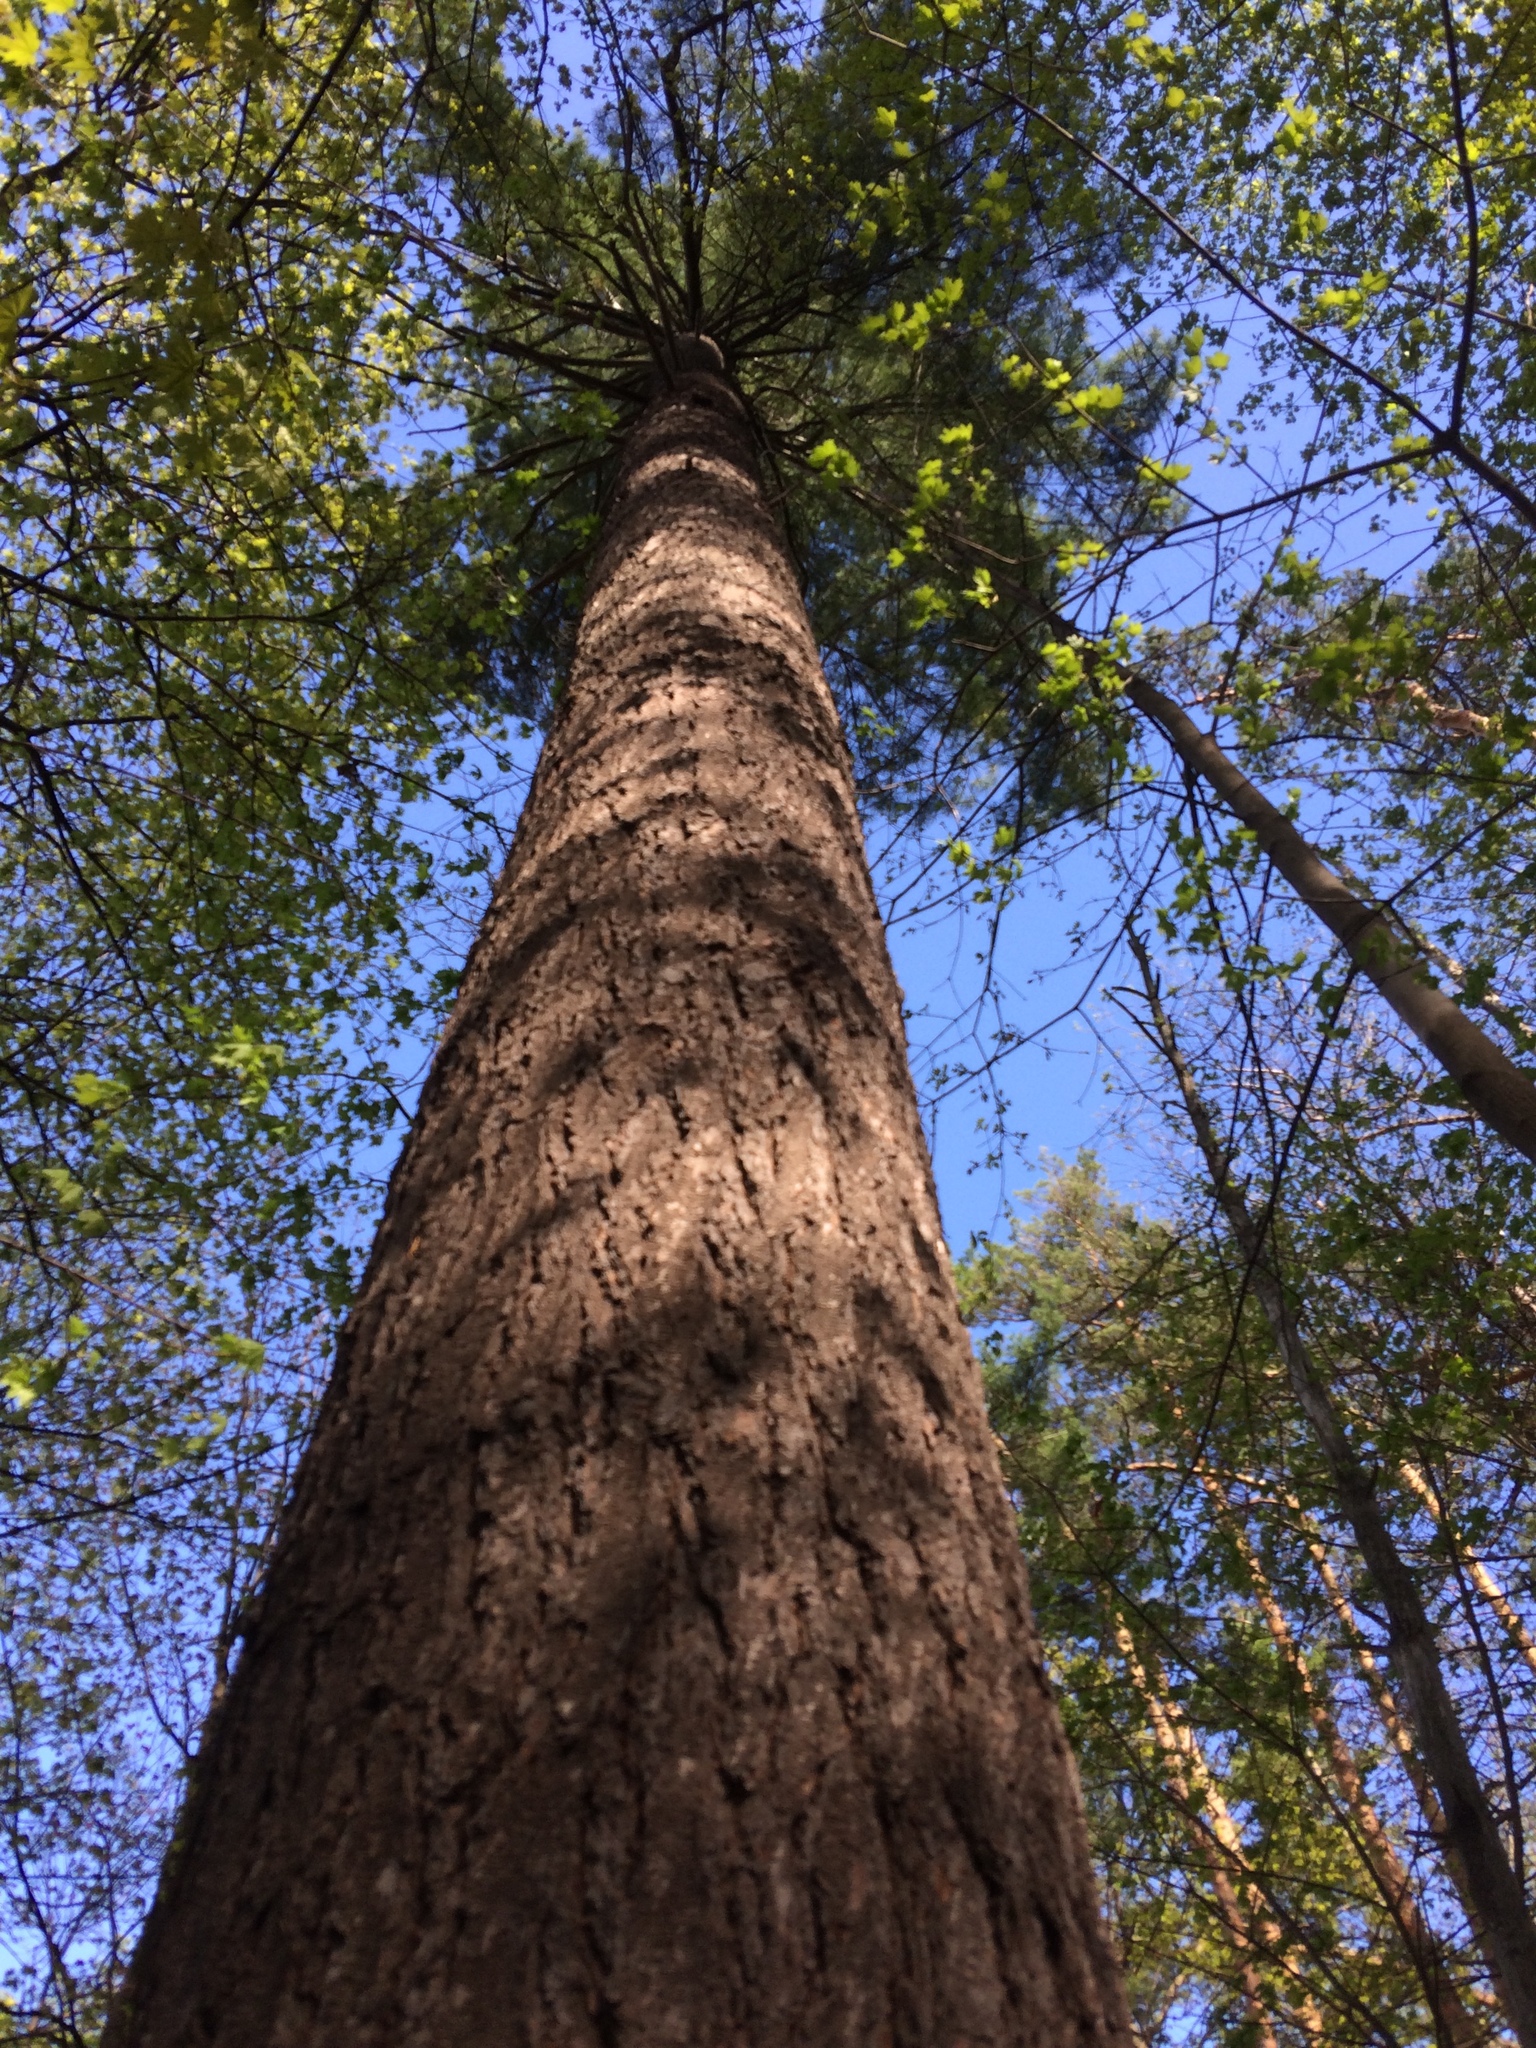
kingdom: Plantae
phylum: Tracheophyta
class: Pinopsida
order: Pinales
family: Pinaceae
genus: Pinus
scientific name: Pinus strobus
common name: Weymouth pine
